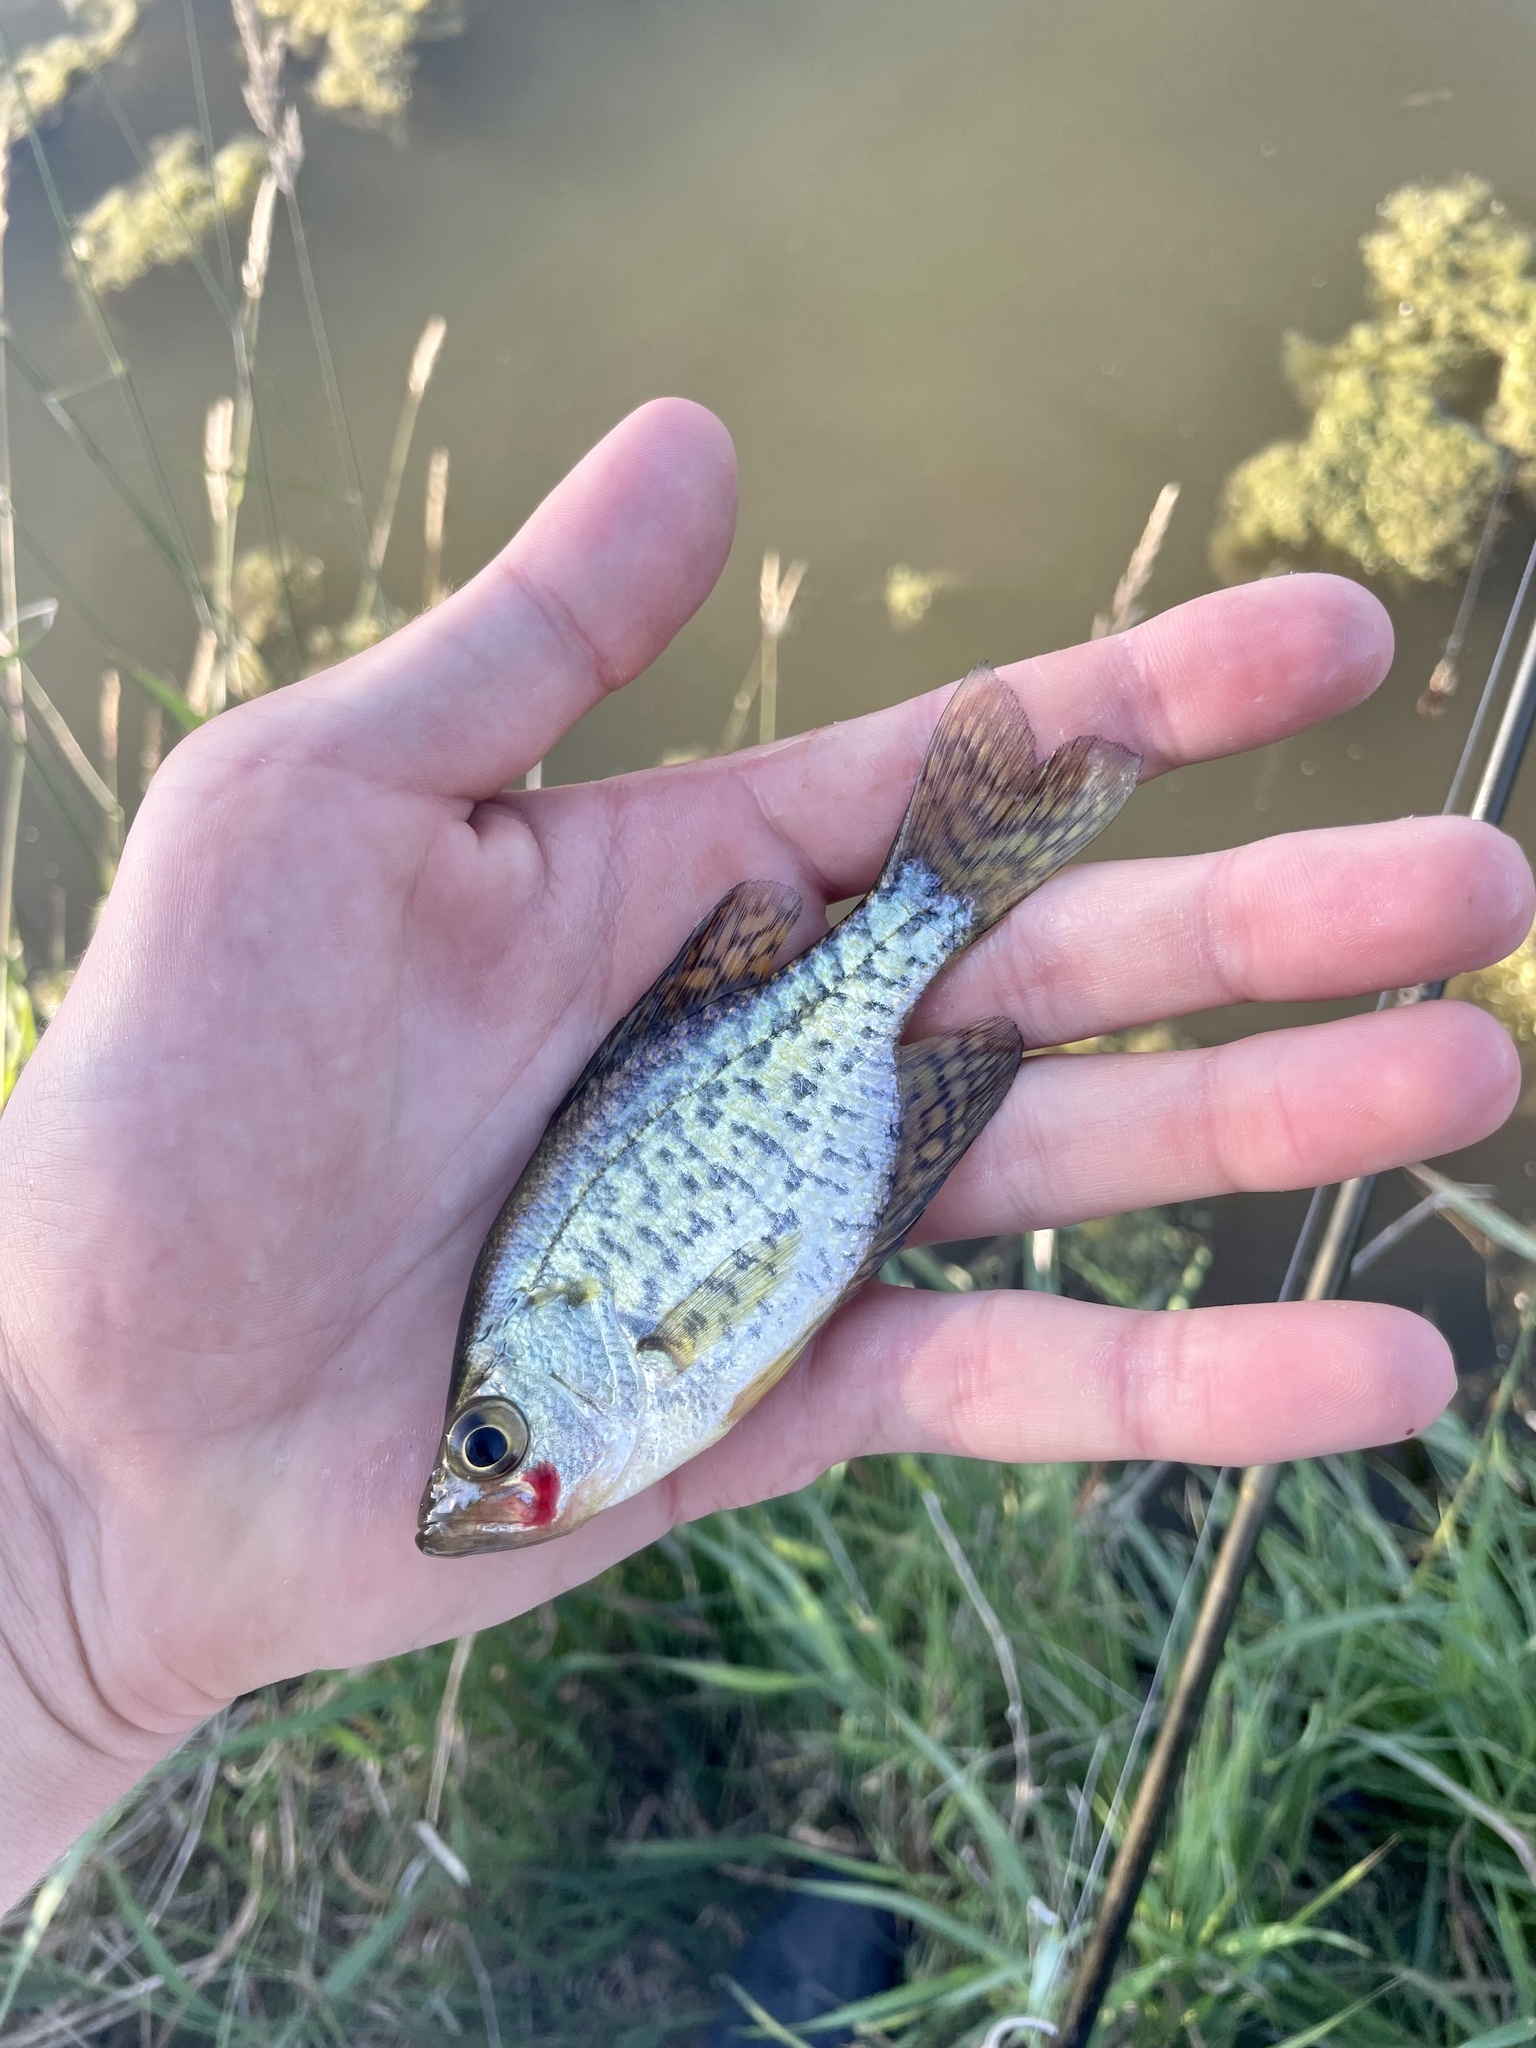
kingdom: Animalia
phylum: Chordata
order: Perciformes
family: Centrarchidae
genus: Pomoxis
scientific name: Pomoxis annularis
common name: White crappie
